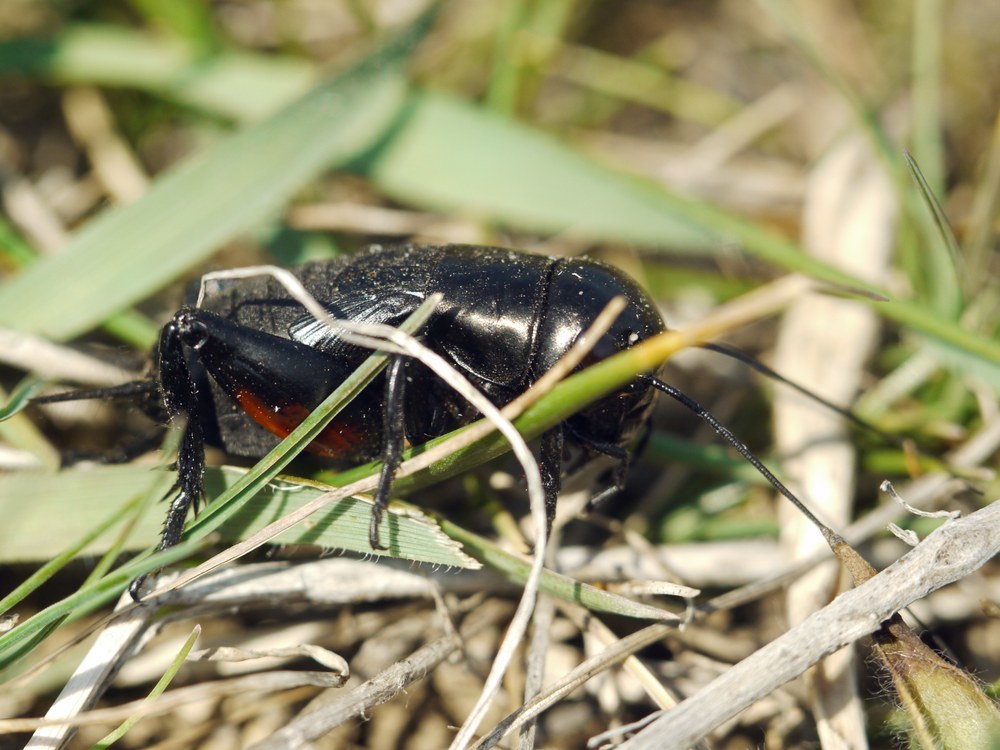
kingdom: Animalia
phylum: Arthropoda
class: Insecta
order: Orthoptera
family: Gryllidae
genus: Gryllus
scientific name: Gryllus campestris
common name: Field cricket
